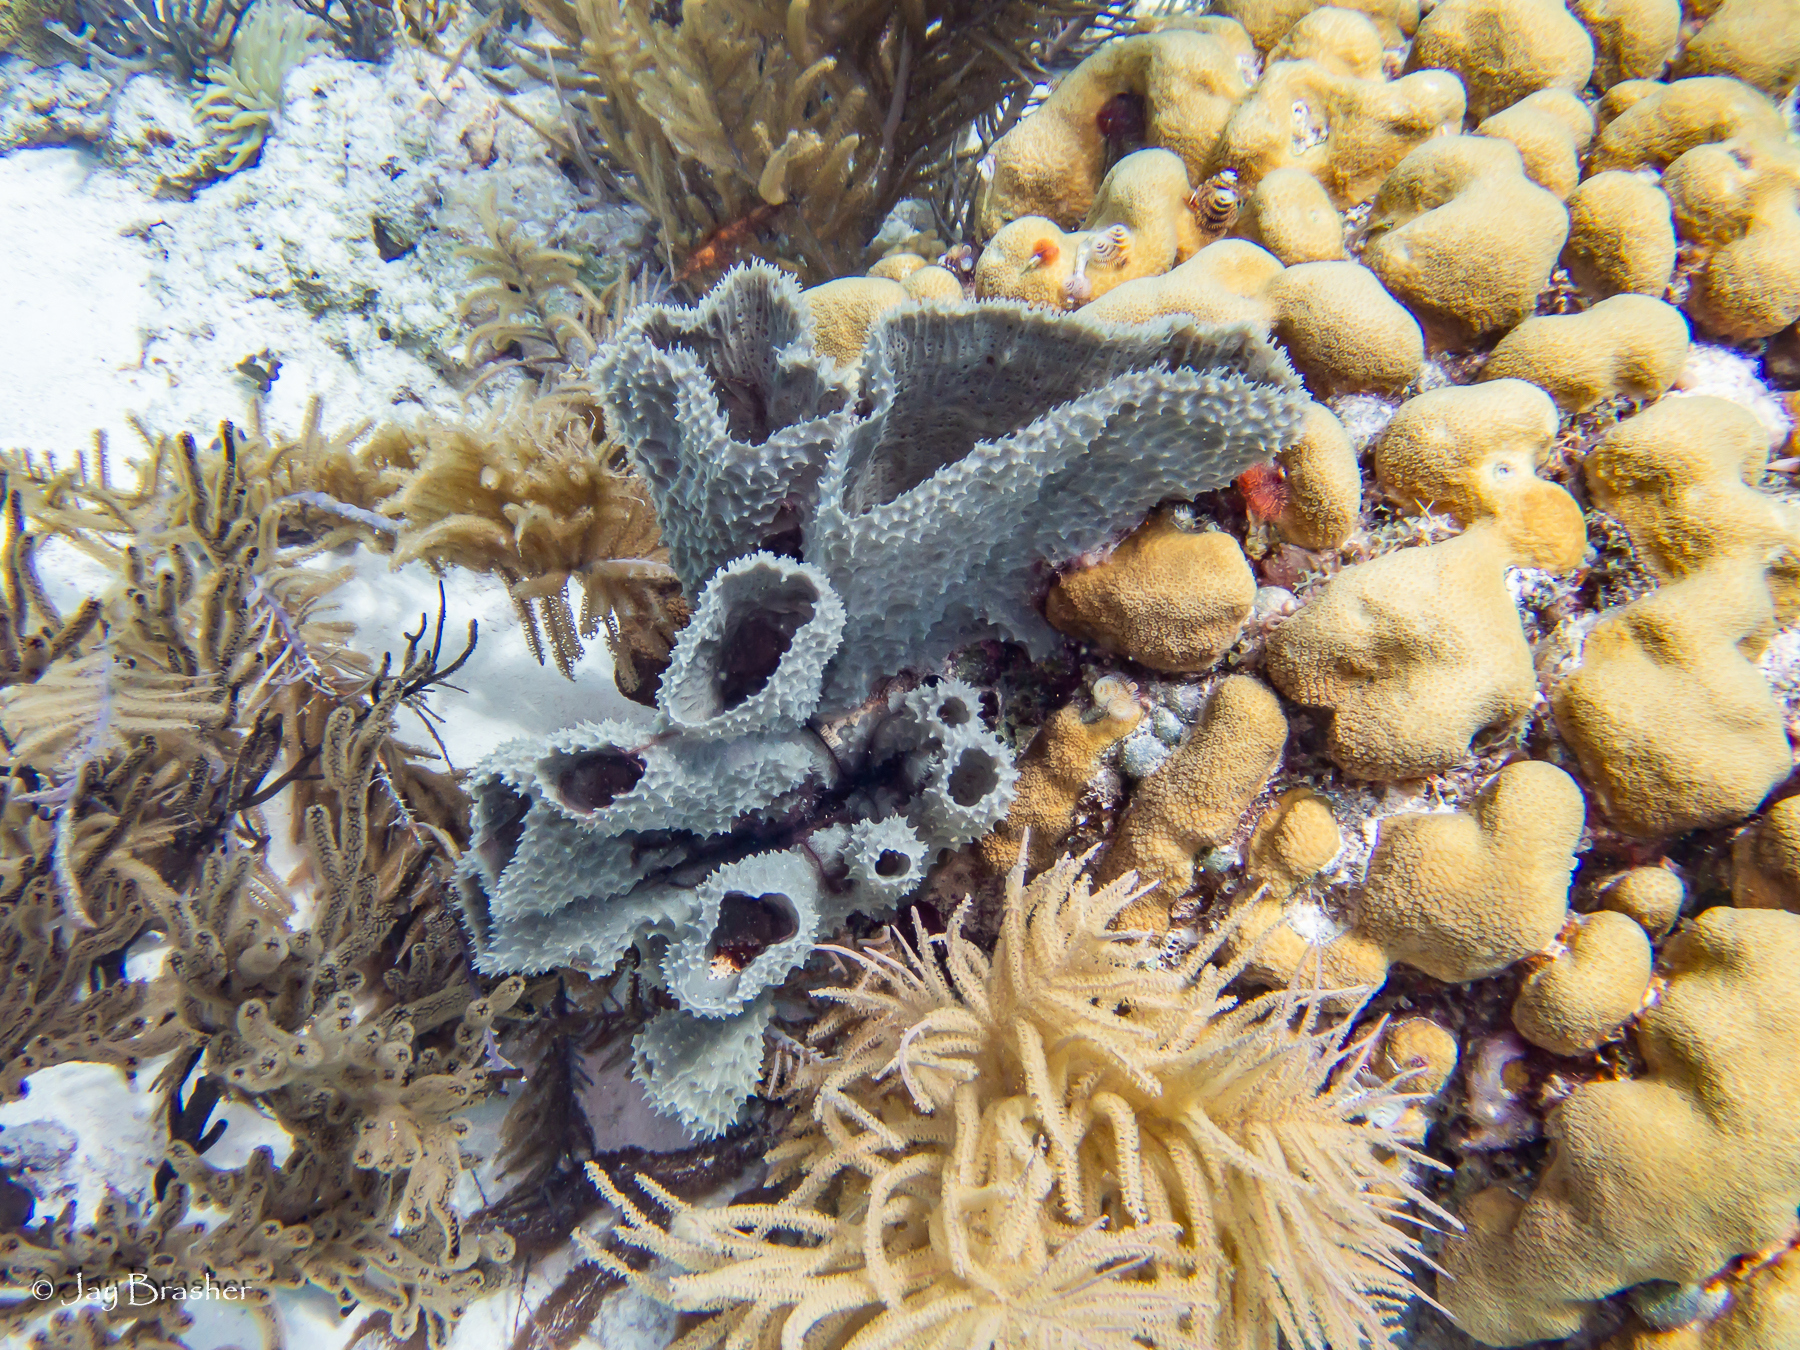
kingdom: Animalia
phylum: Porifera
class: Demospongiae
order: Haplosclerida
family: Callyspongiidae
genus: Callyspongia
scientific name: Callyspongia aculeata
